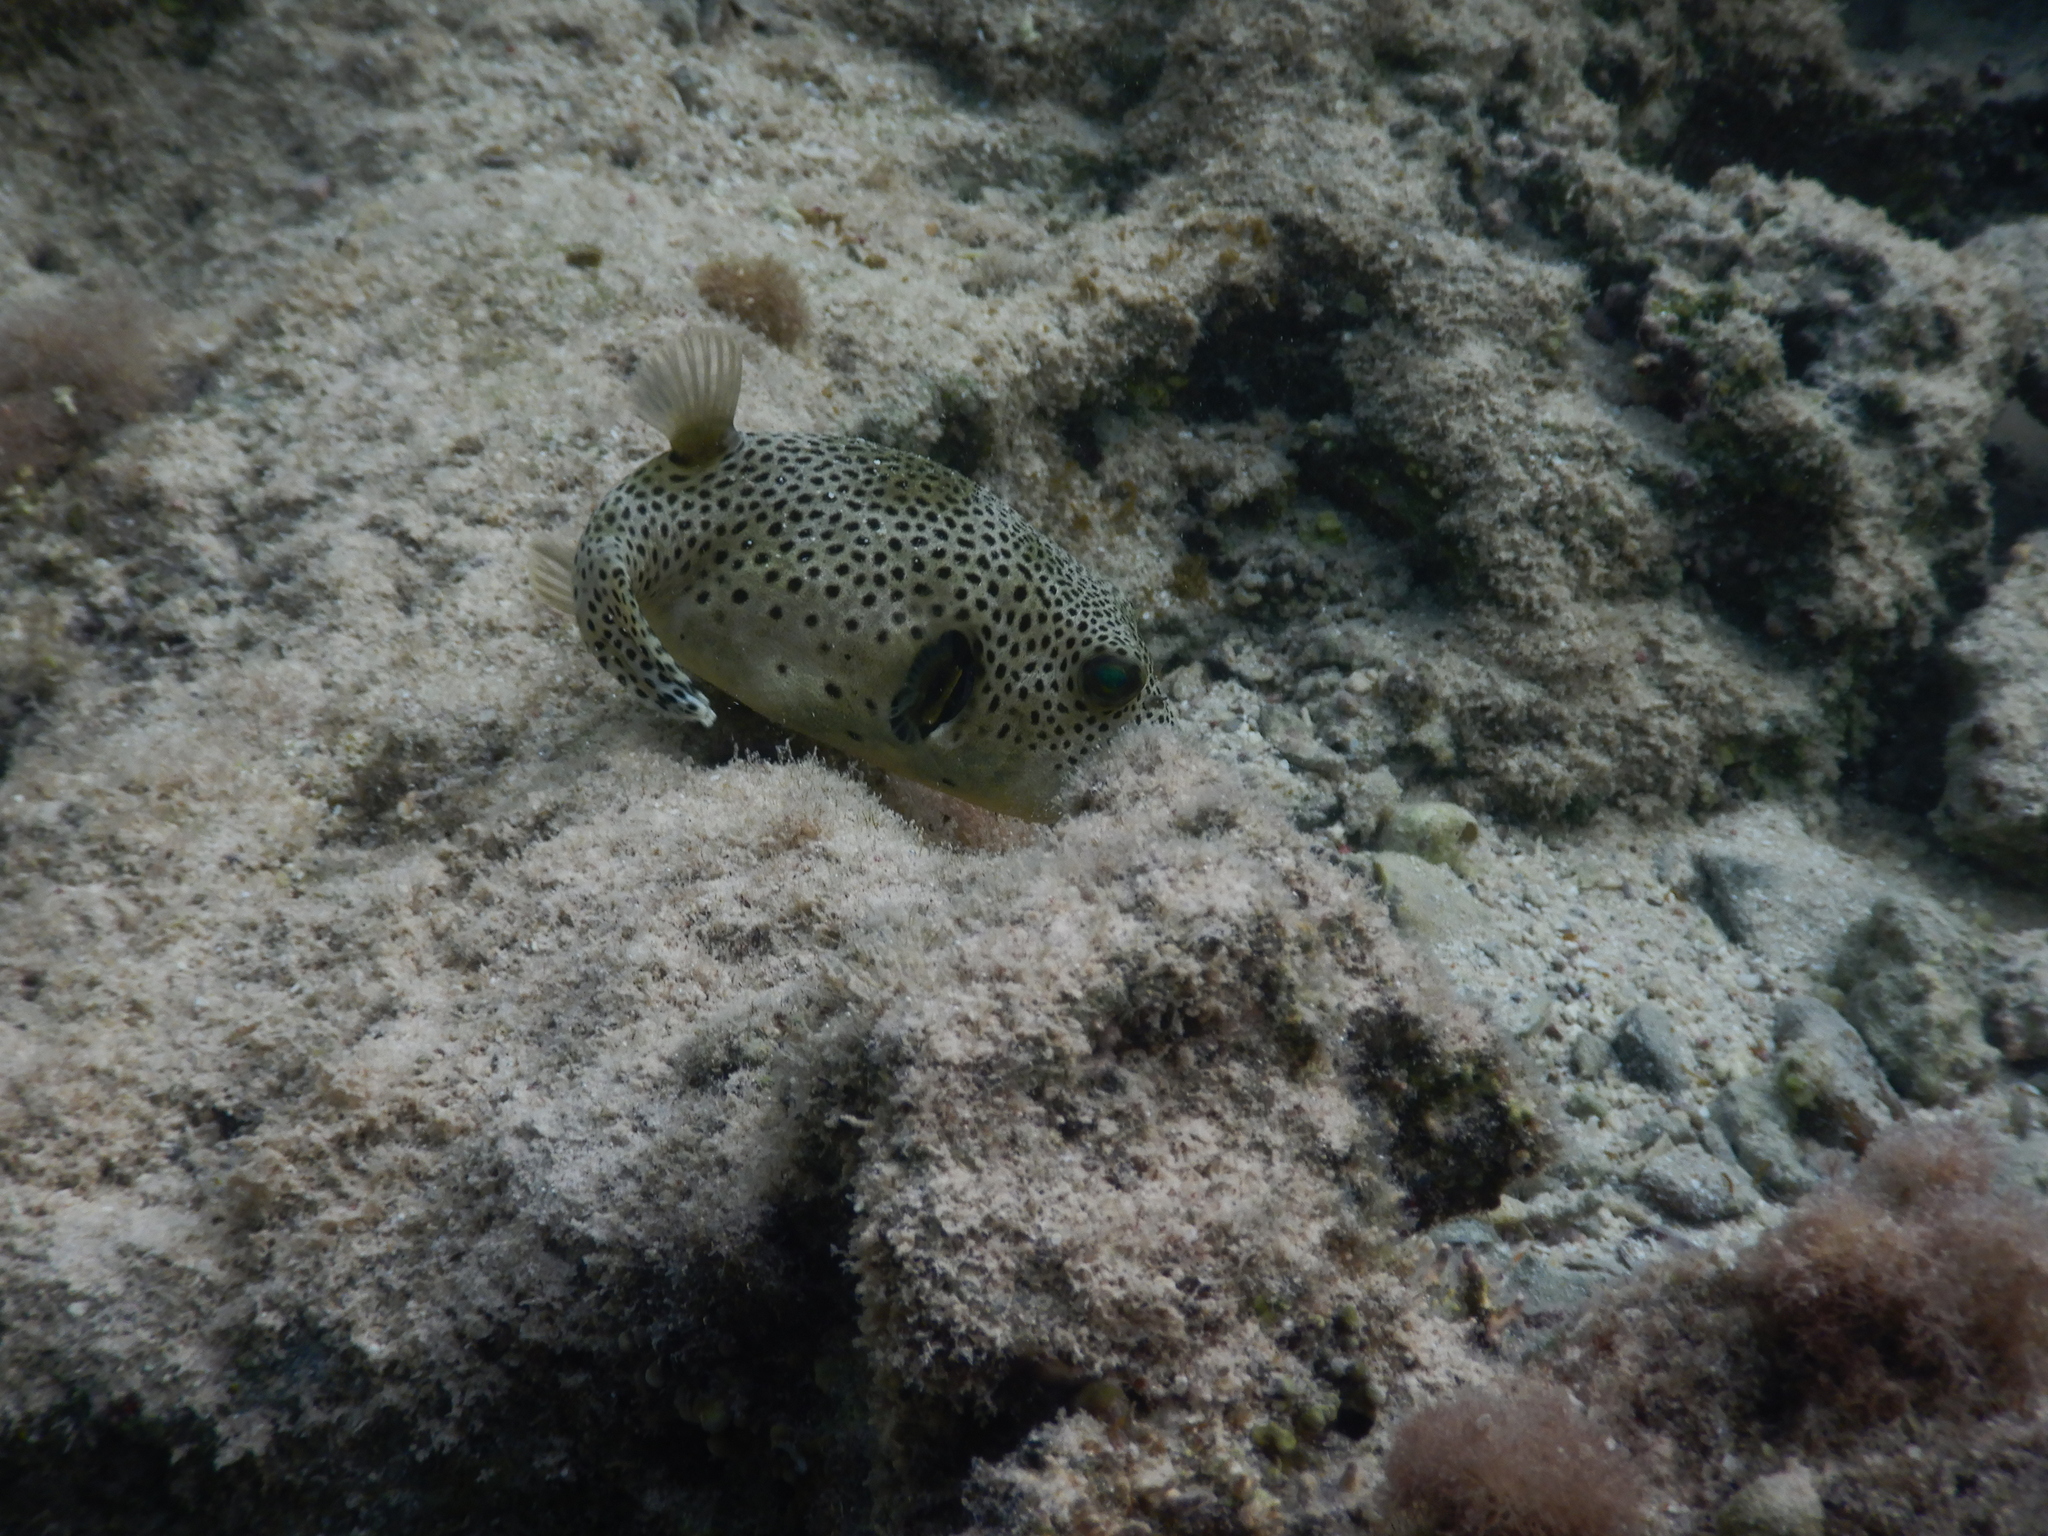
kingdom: Animalia
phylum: Chordata
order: Tetraodontiformes
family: Tetraodontidae
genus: Arothron
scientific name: Arothron stellatus
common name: Star blaasop
